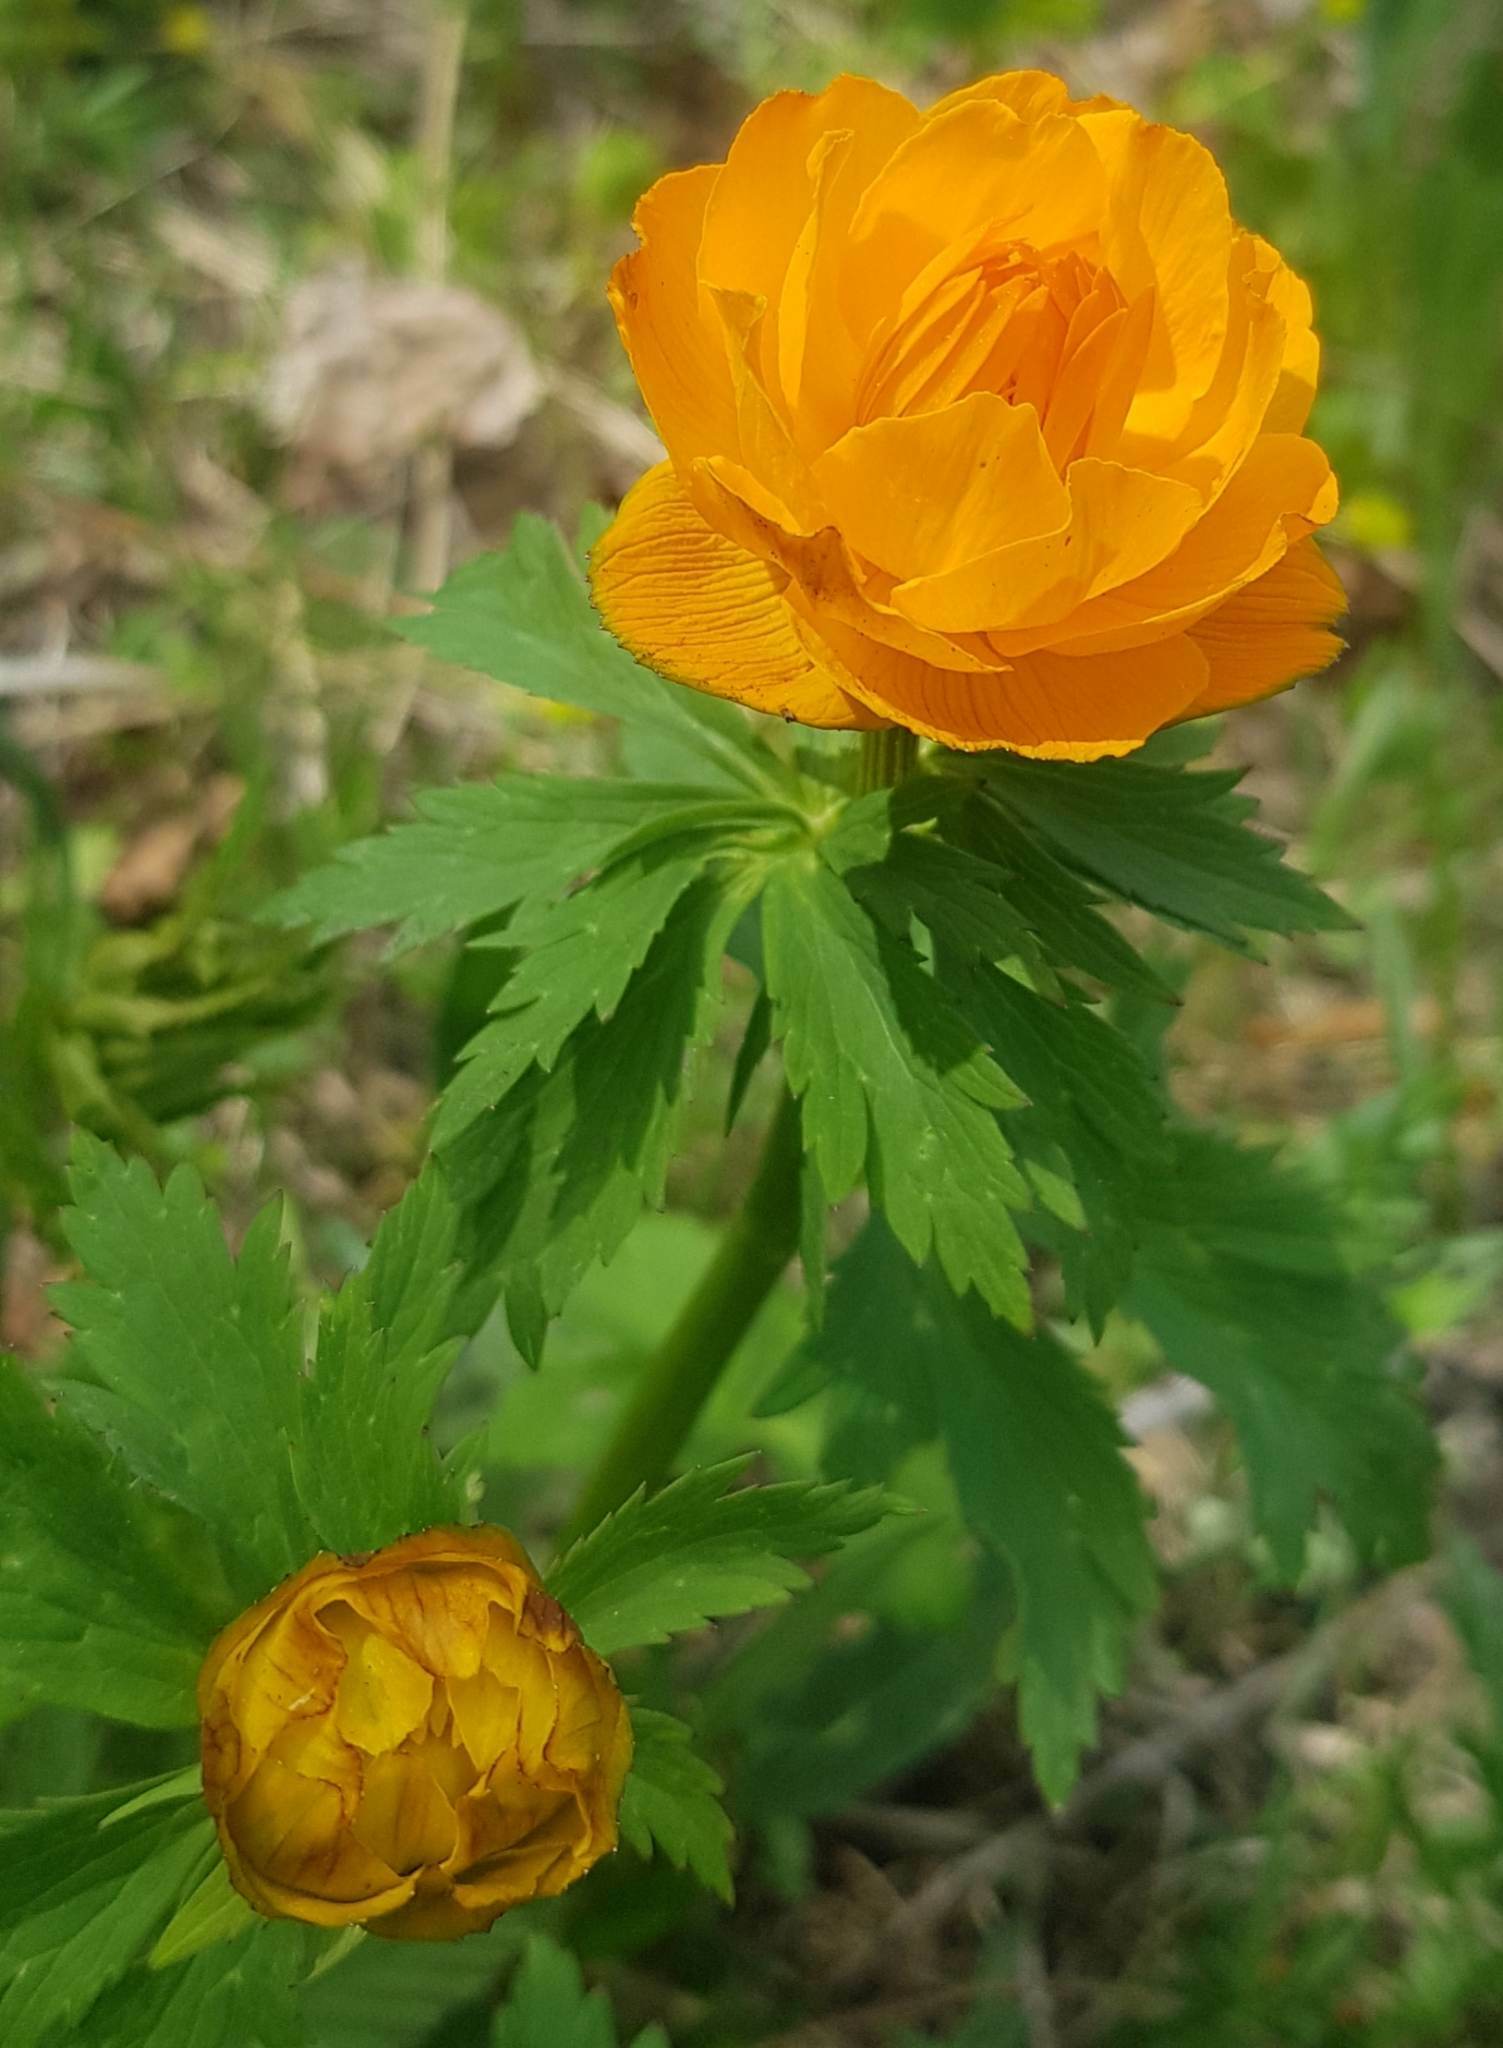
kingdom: Plantae
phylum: Tracheophyta
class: Magnoliopsida
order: Ranunculales
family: Ranunculaceae
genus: Trollius
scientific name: Trollius asiaticus
